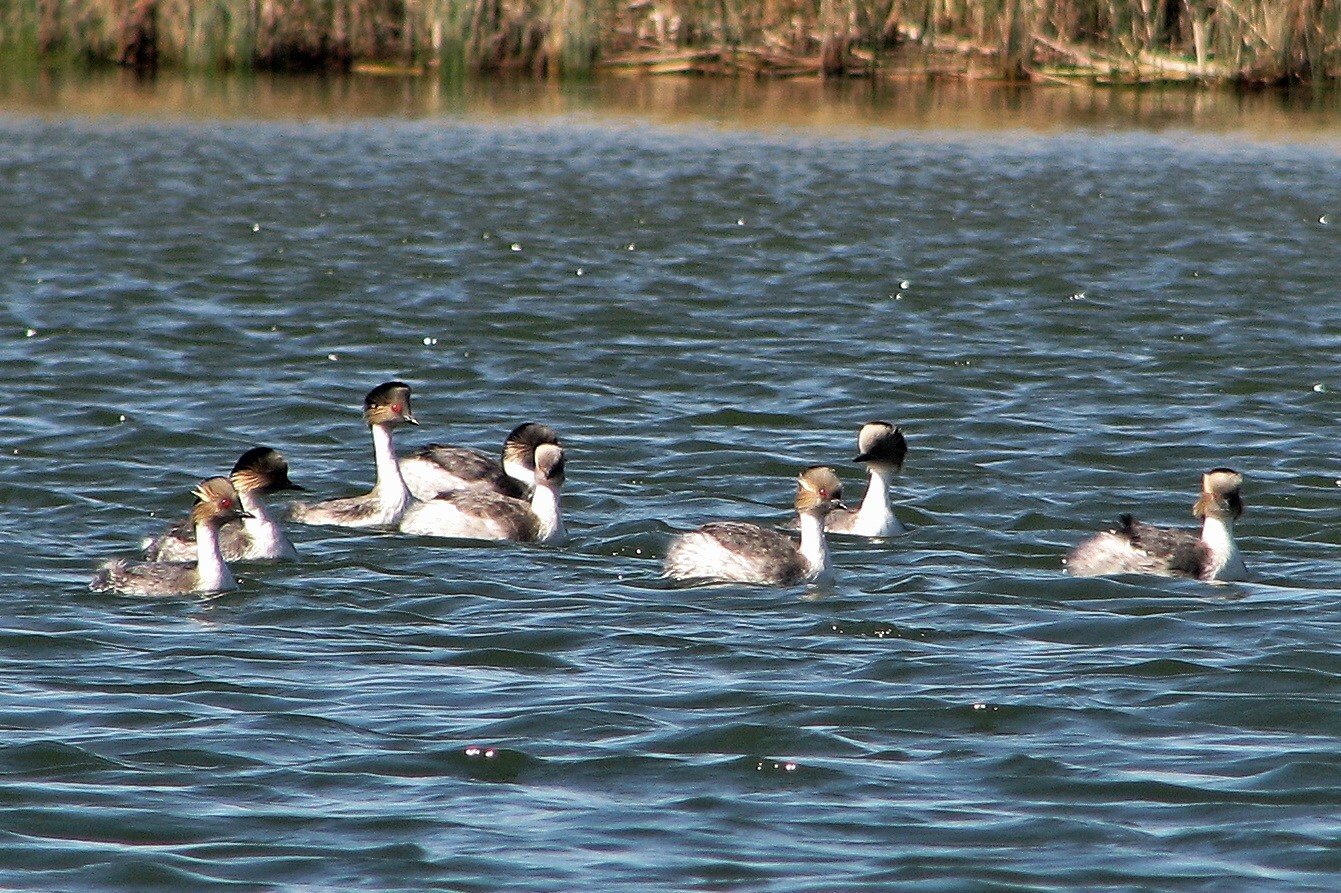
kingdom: Animalia
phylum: Chordata
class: Aves
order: Podicipediformes
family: Podicipedidae
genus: Podiceps
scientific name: Podiceps occipitalis
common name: Silvery grebe
